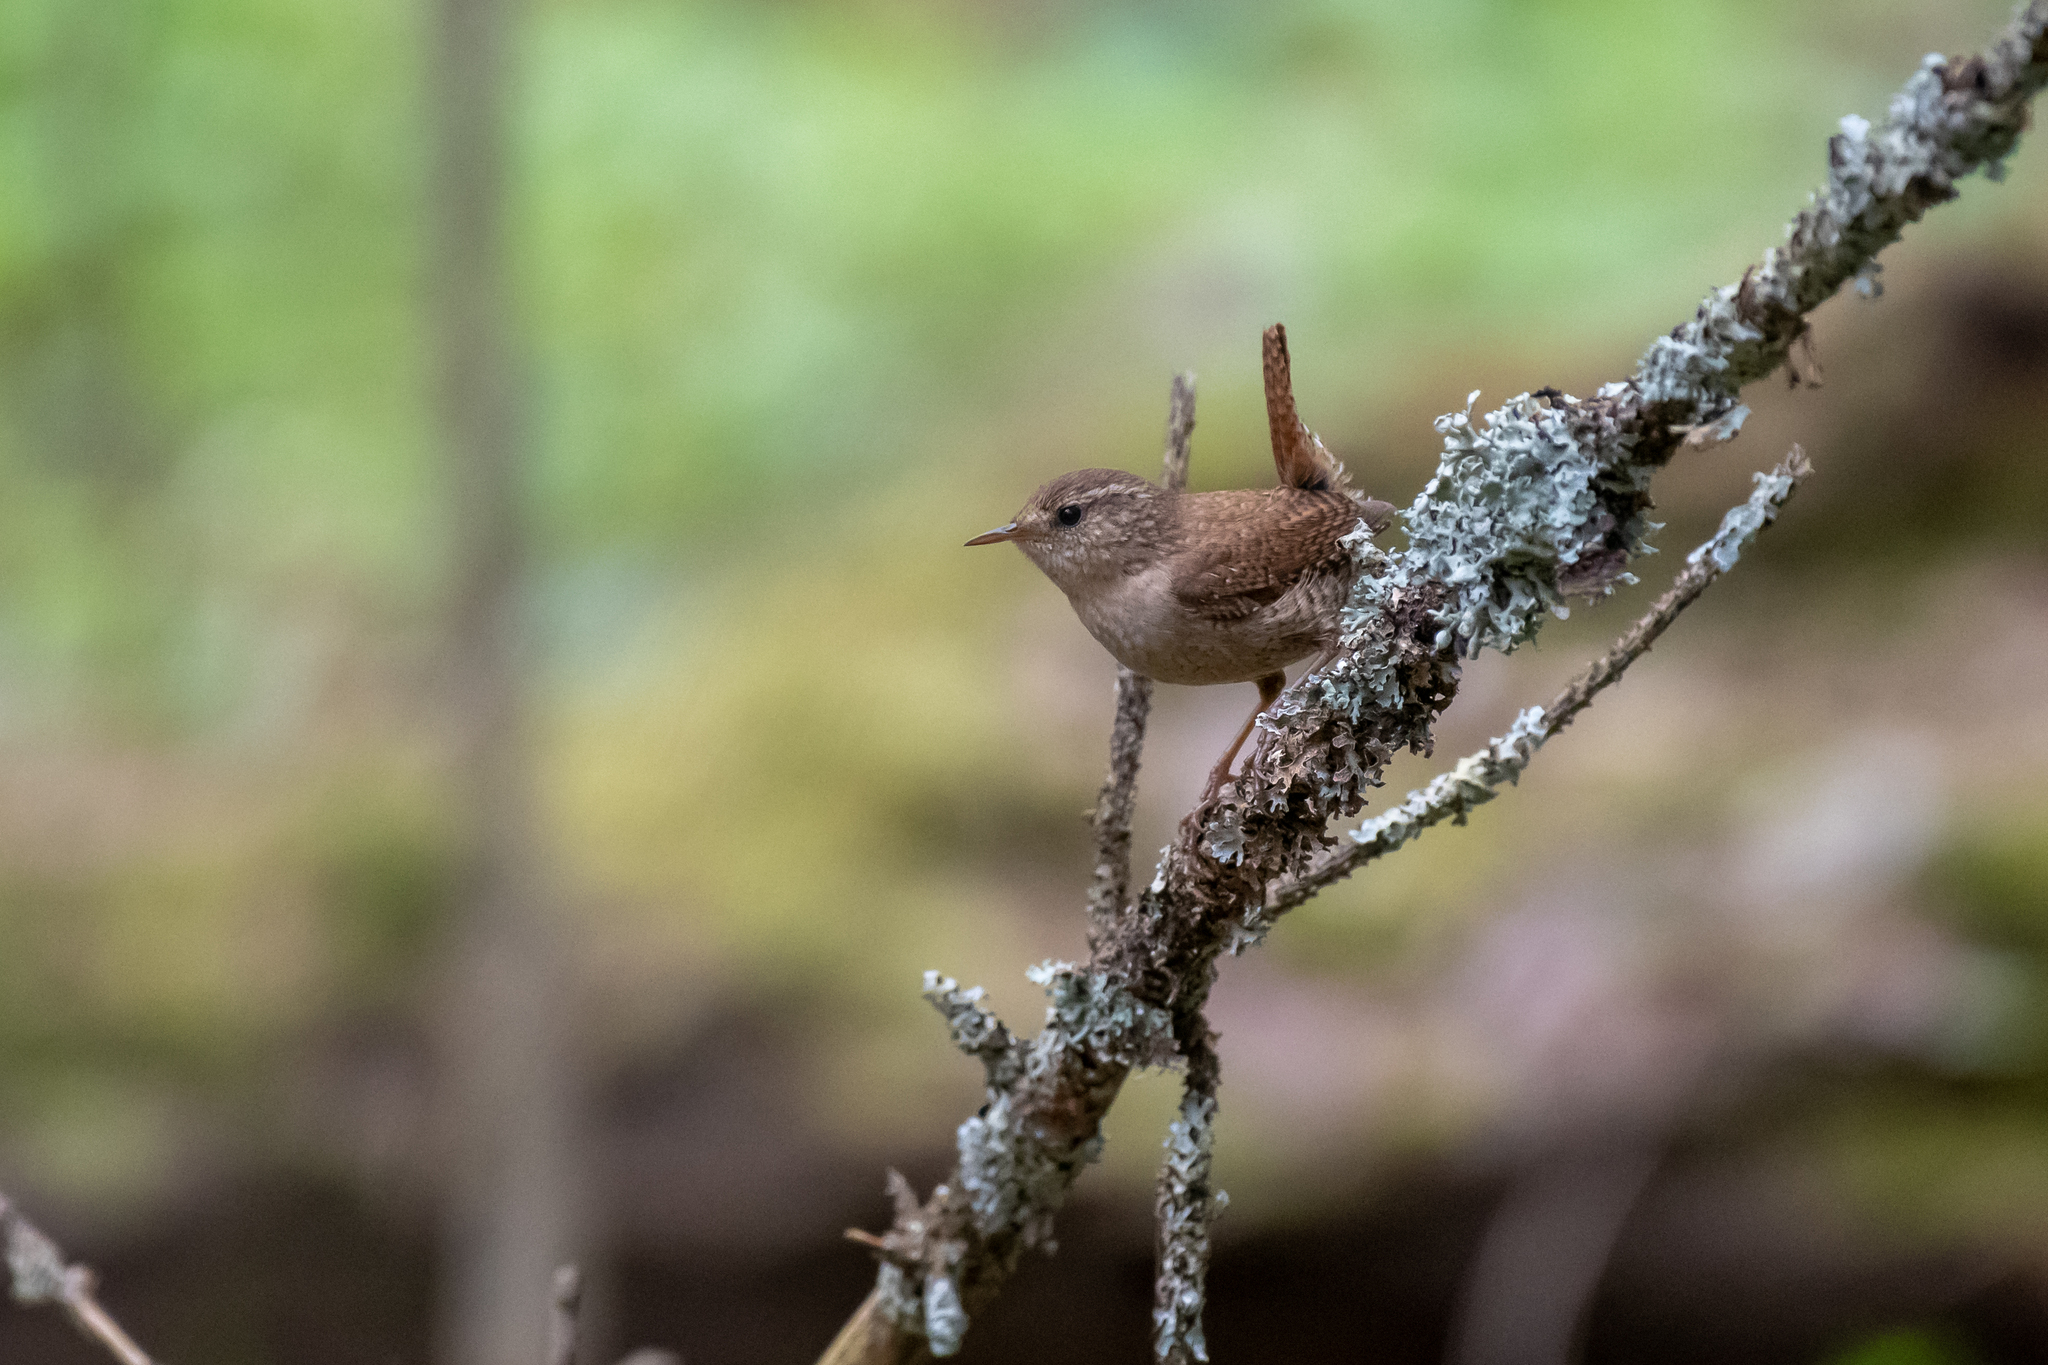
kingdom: Animalia
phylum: Chordata
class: Aves
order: Passeriformes
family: Troglodytidae
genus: Troglodytes
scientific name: Troglodytes troglodytes
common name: Eurasian wren
